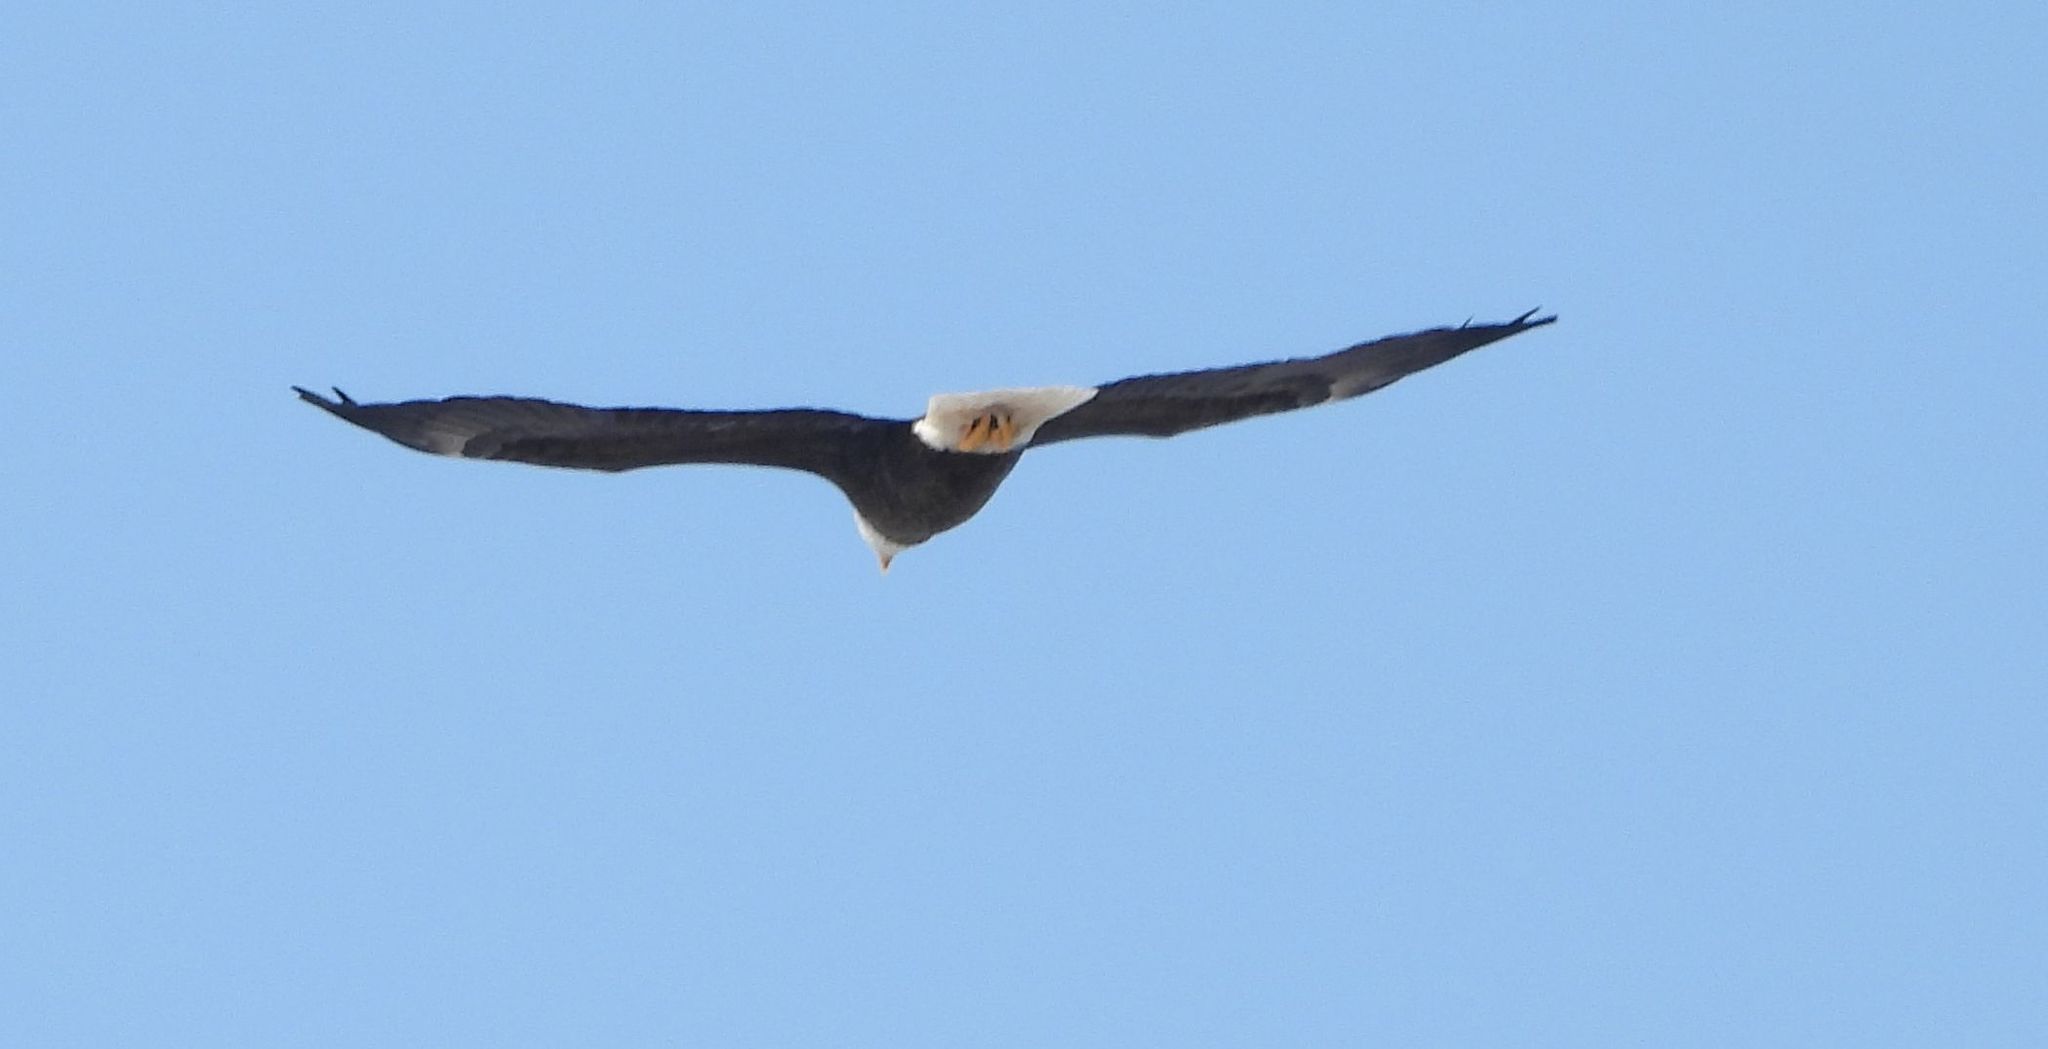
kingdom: Animalia
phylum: Chordata
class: Aves
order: Accipitriformes
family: Accipitridae
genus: Haliaeetus
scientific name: Haliaeetus leucocephalus
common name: Bald eagle
